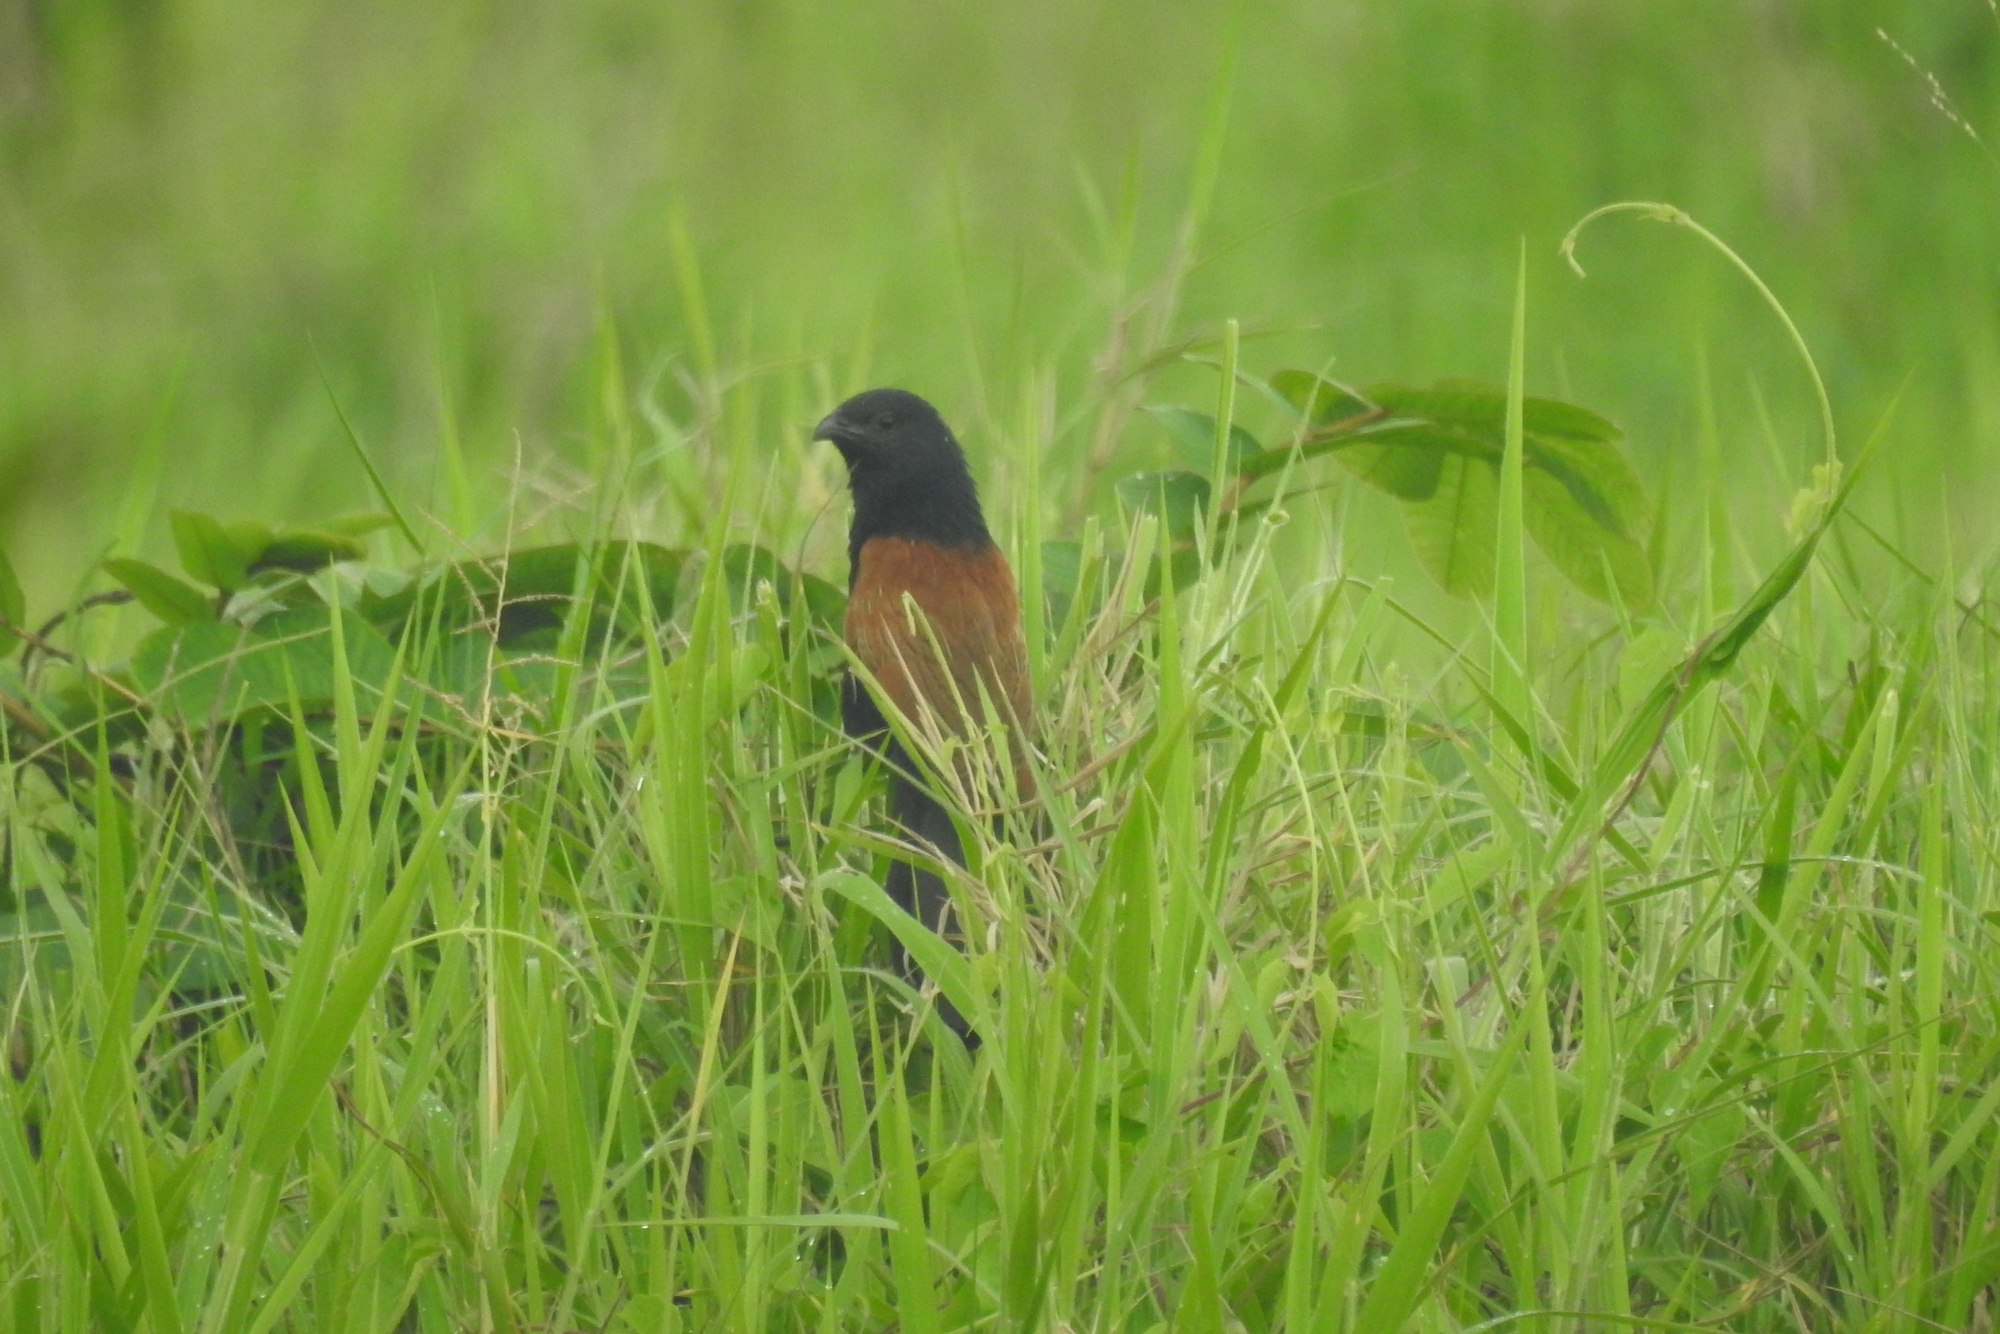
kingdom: Animalia
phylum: Chordata
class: Aves
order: Cuculiformes
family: Cuculidae
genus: Centropus
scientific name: Centropus bengalensis
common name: Lesser coucal
